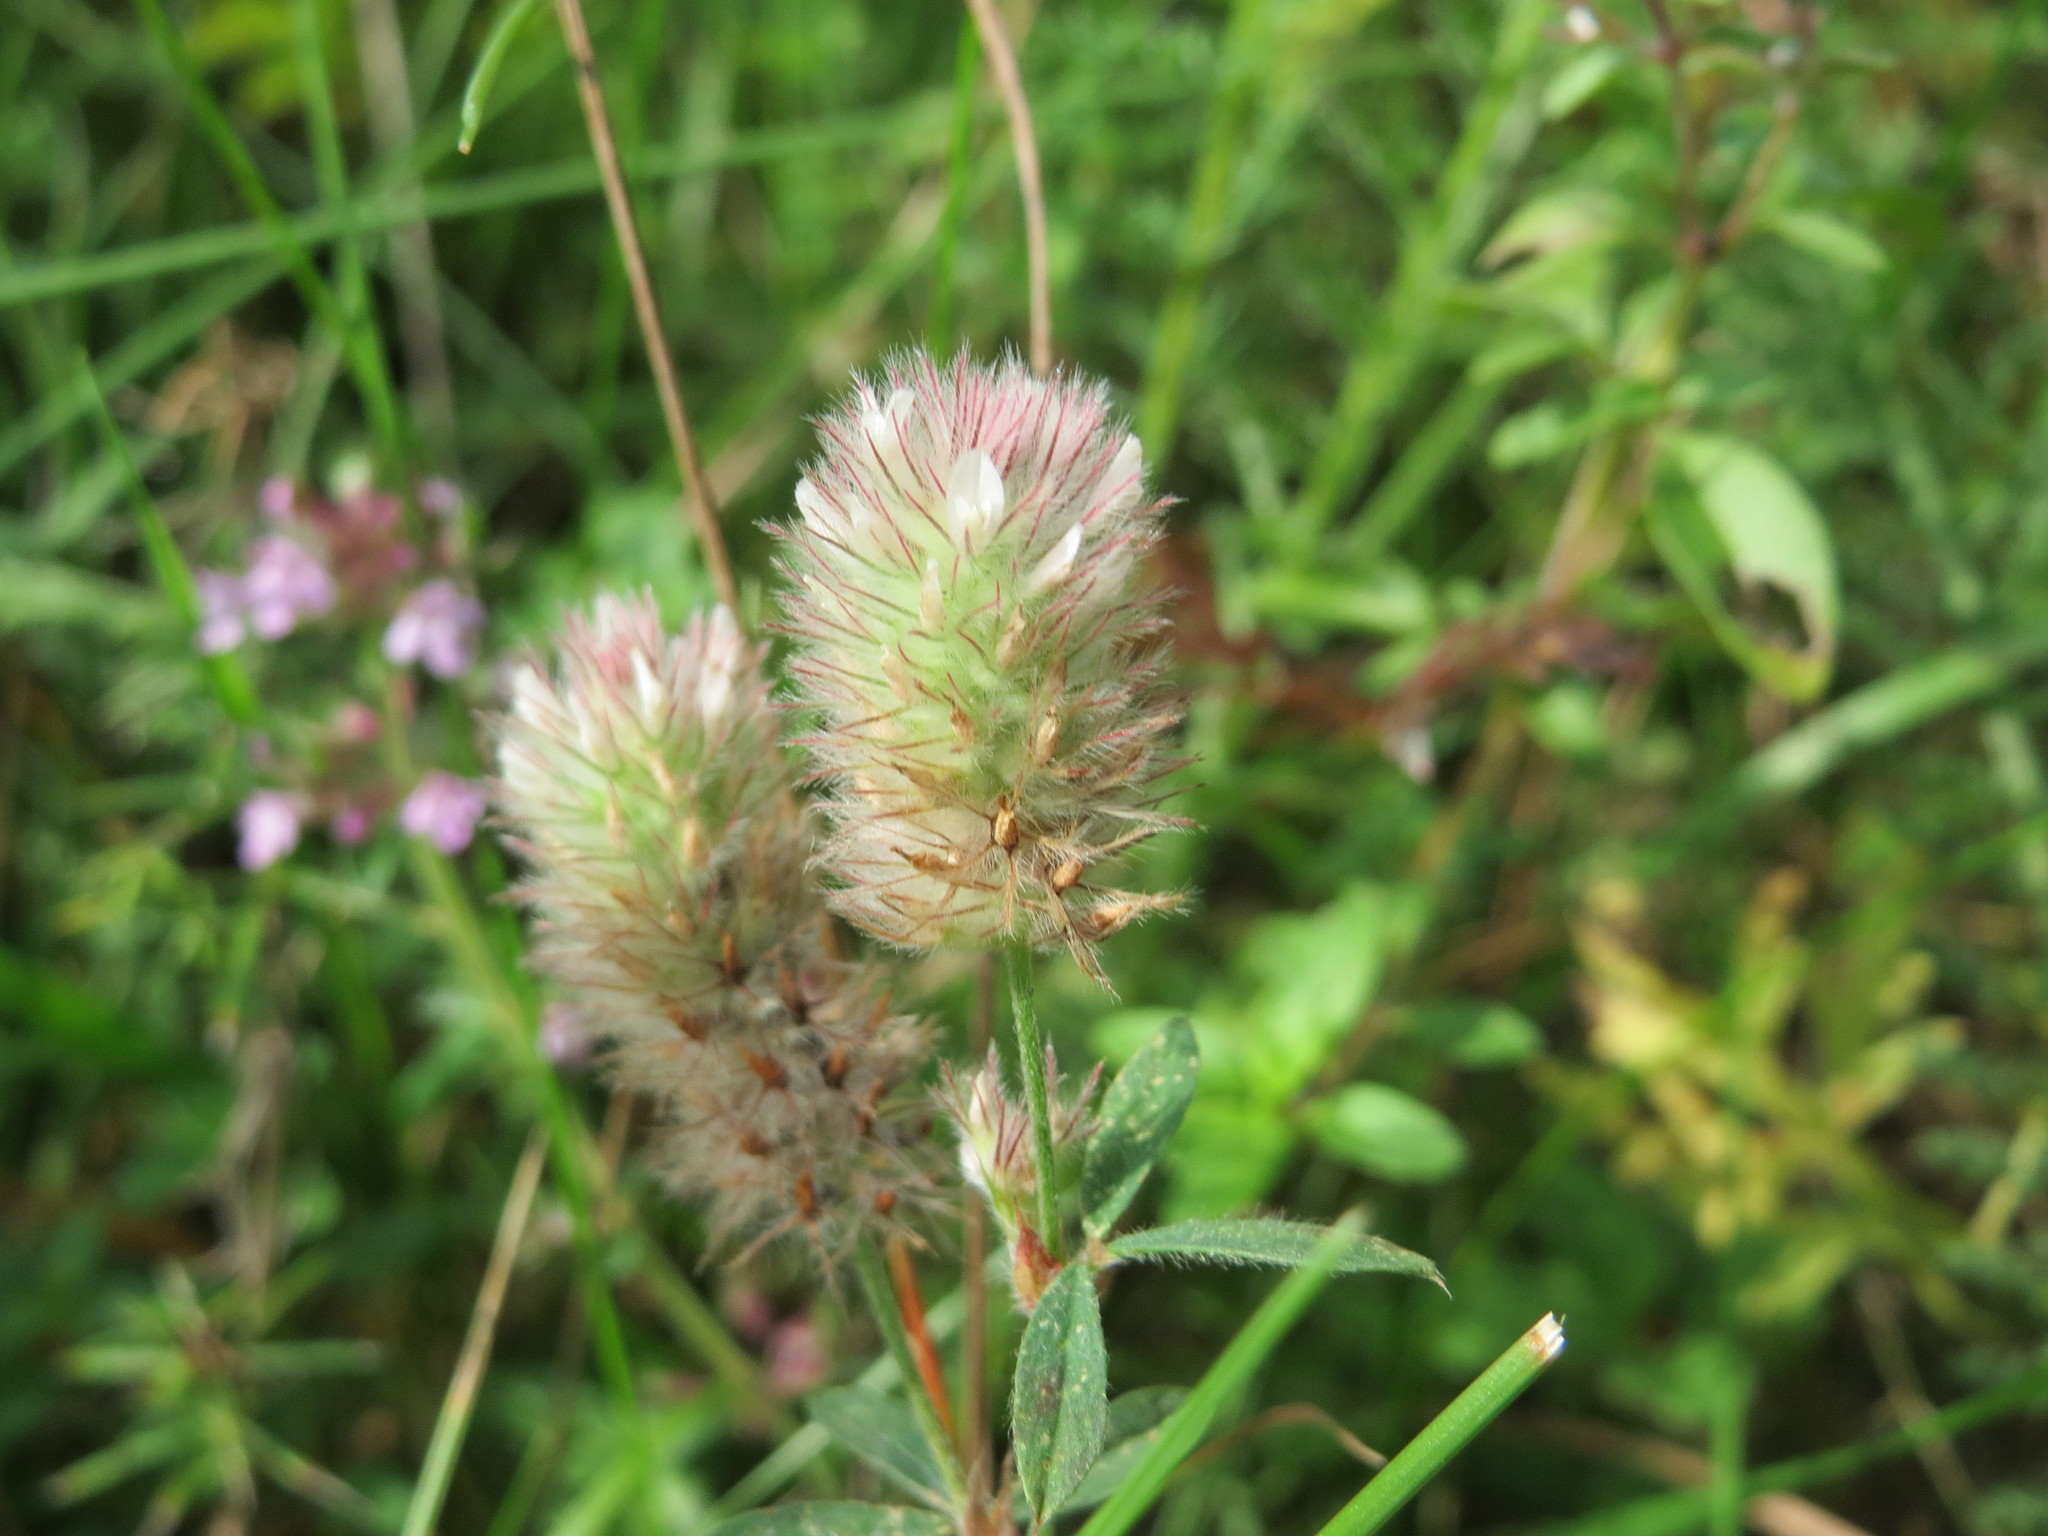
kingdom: Plantae
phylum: Tracheophyta
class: Magnoliopsida
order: Fabales
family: Fabaceae
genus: Trifolium
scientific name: Trifolium arvense
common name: Hare's-foot clover
